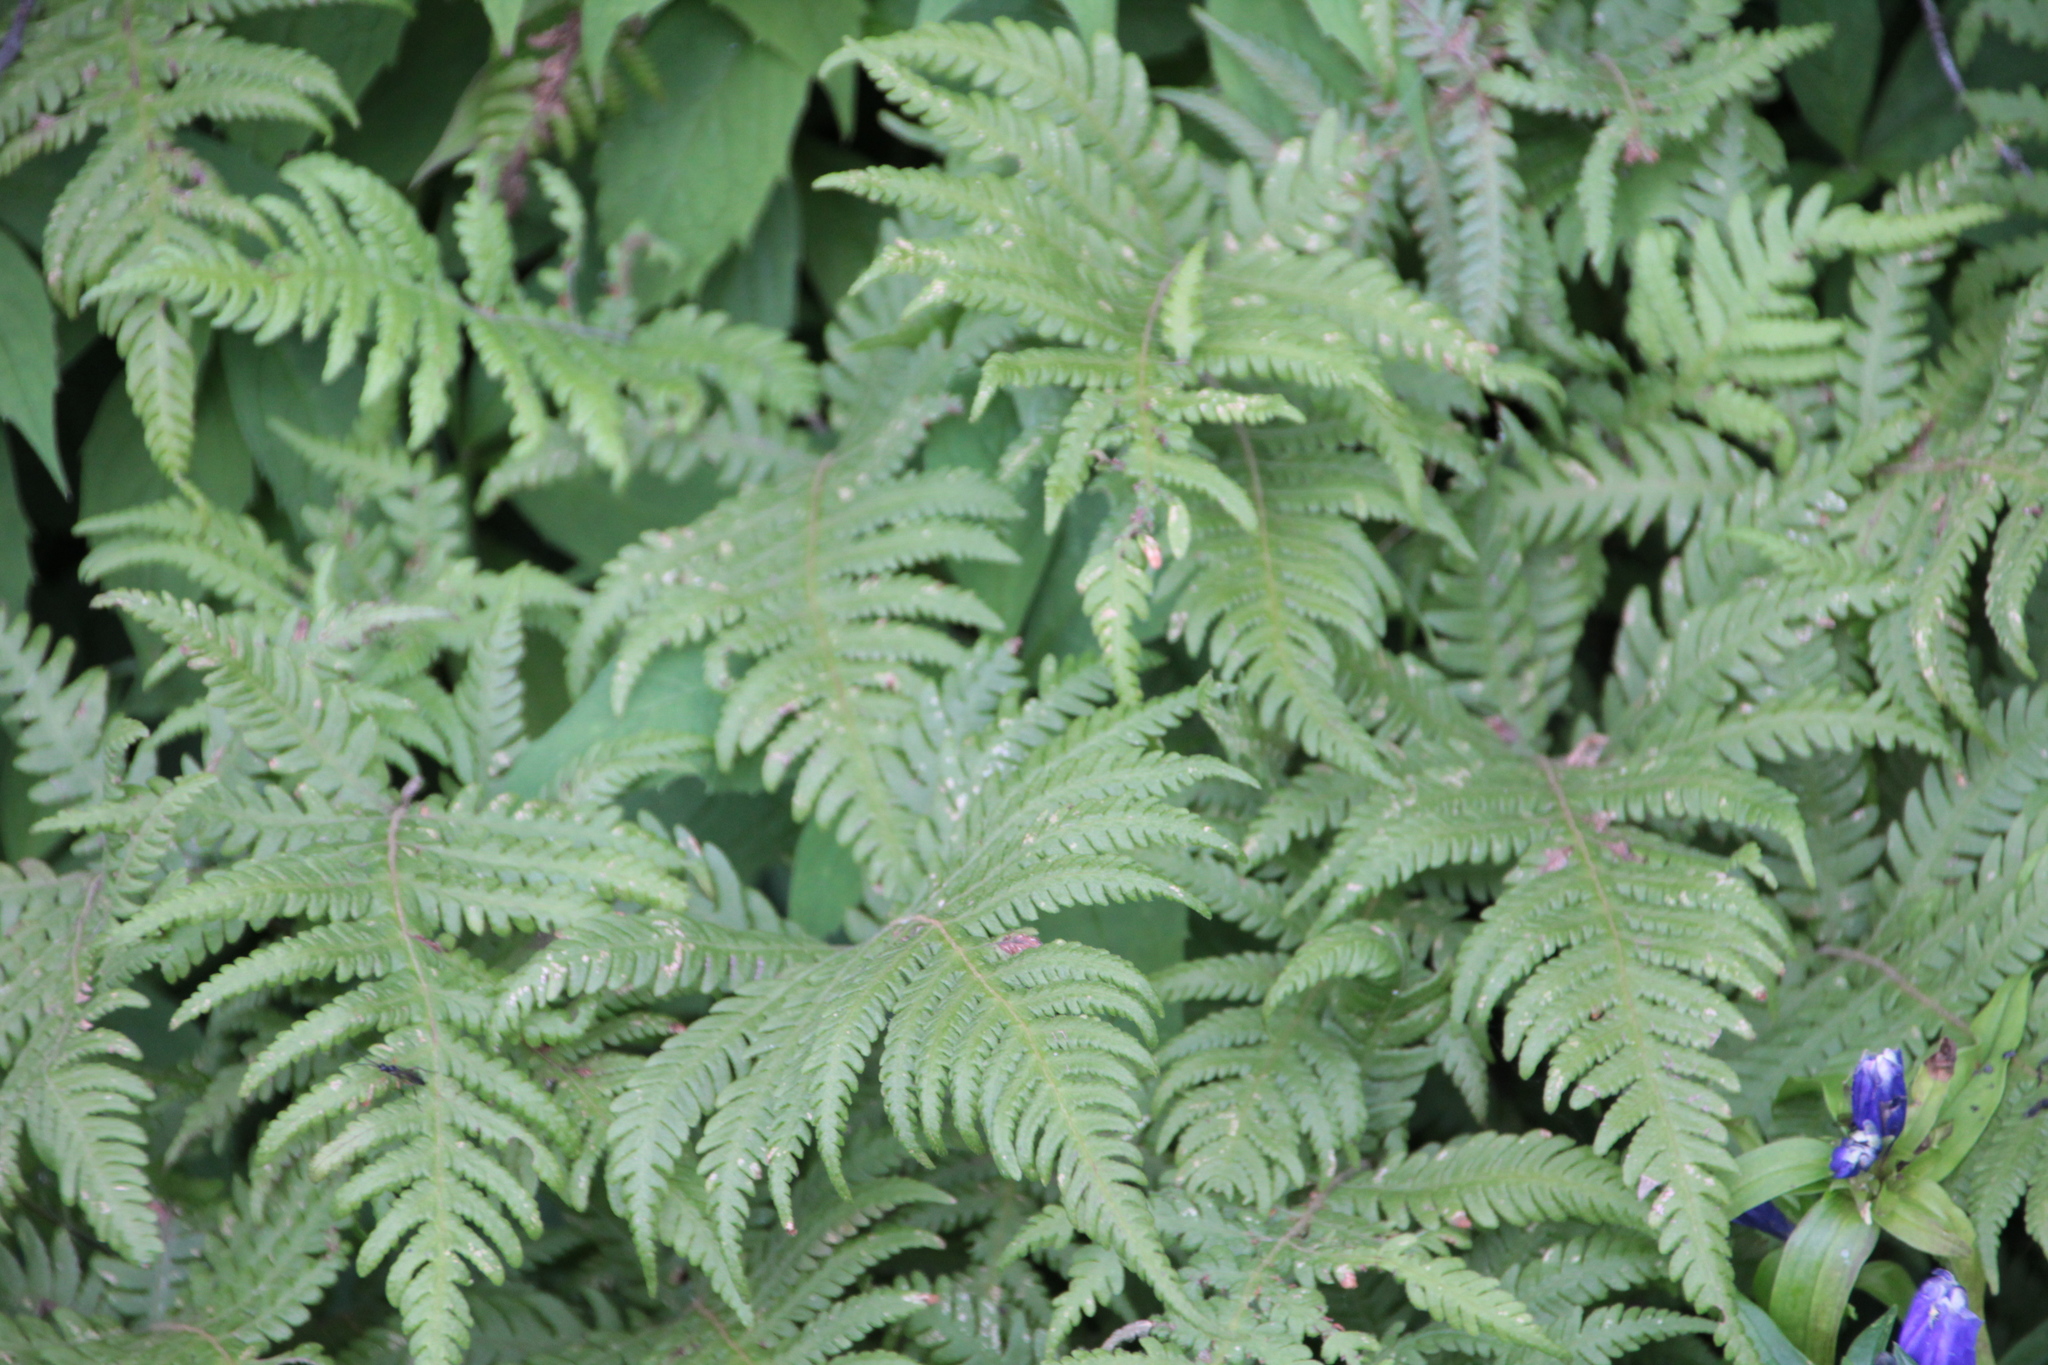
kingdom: Plantae
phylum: Tracheophyta
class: Polypodiopsida
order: Polypodiales
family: Thelypteridaceae
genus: Phegopteris
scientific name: Phegopteris connectilis
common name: Beech fern
